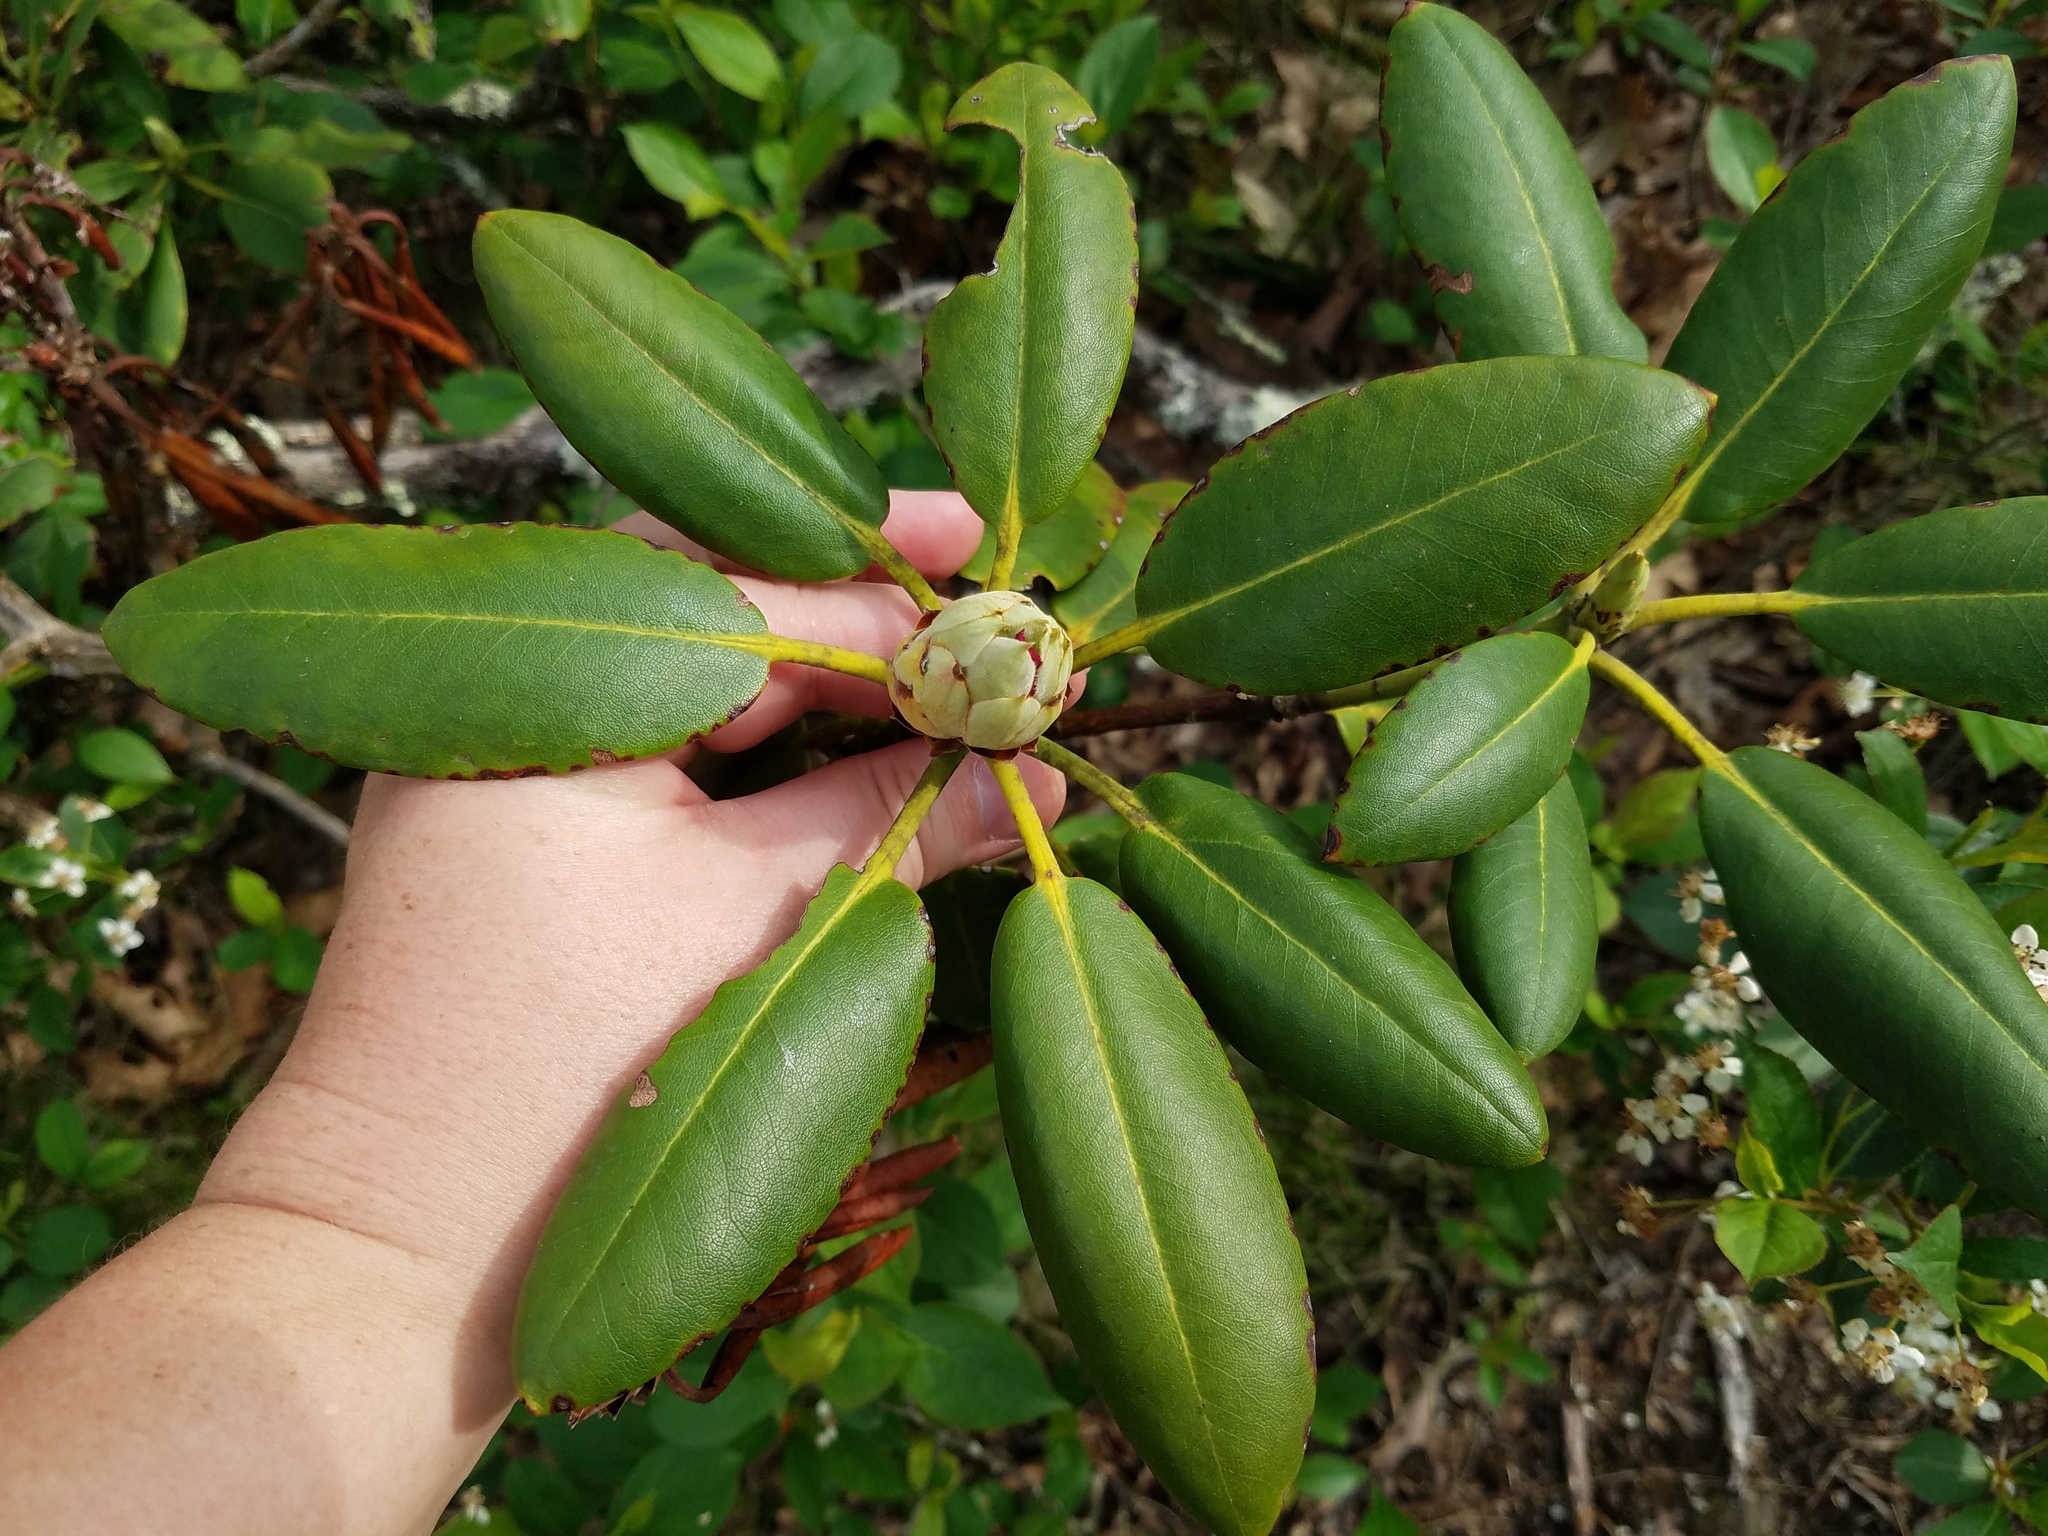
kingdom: Plantae
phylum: Tracheophyta
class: Magnoliopsida
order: Ericales
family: Ericaceae
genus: Rhododendron
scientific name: Rhododendron catawbiense
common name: Catawba rhododendron
